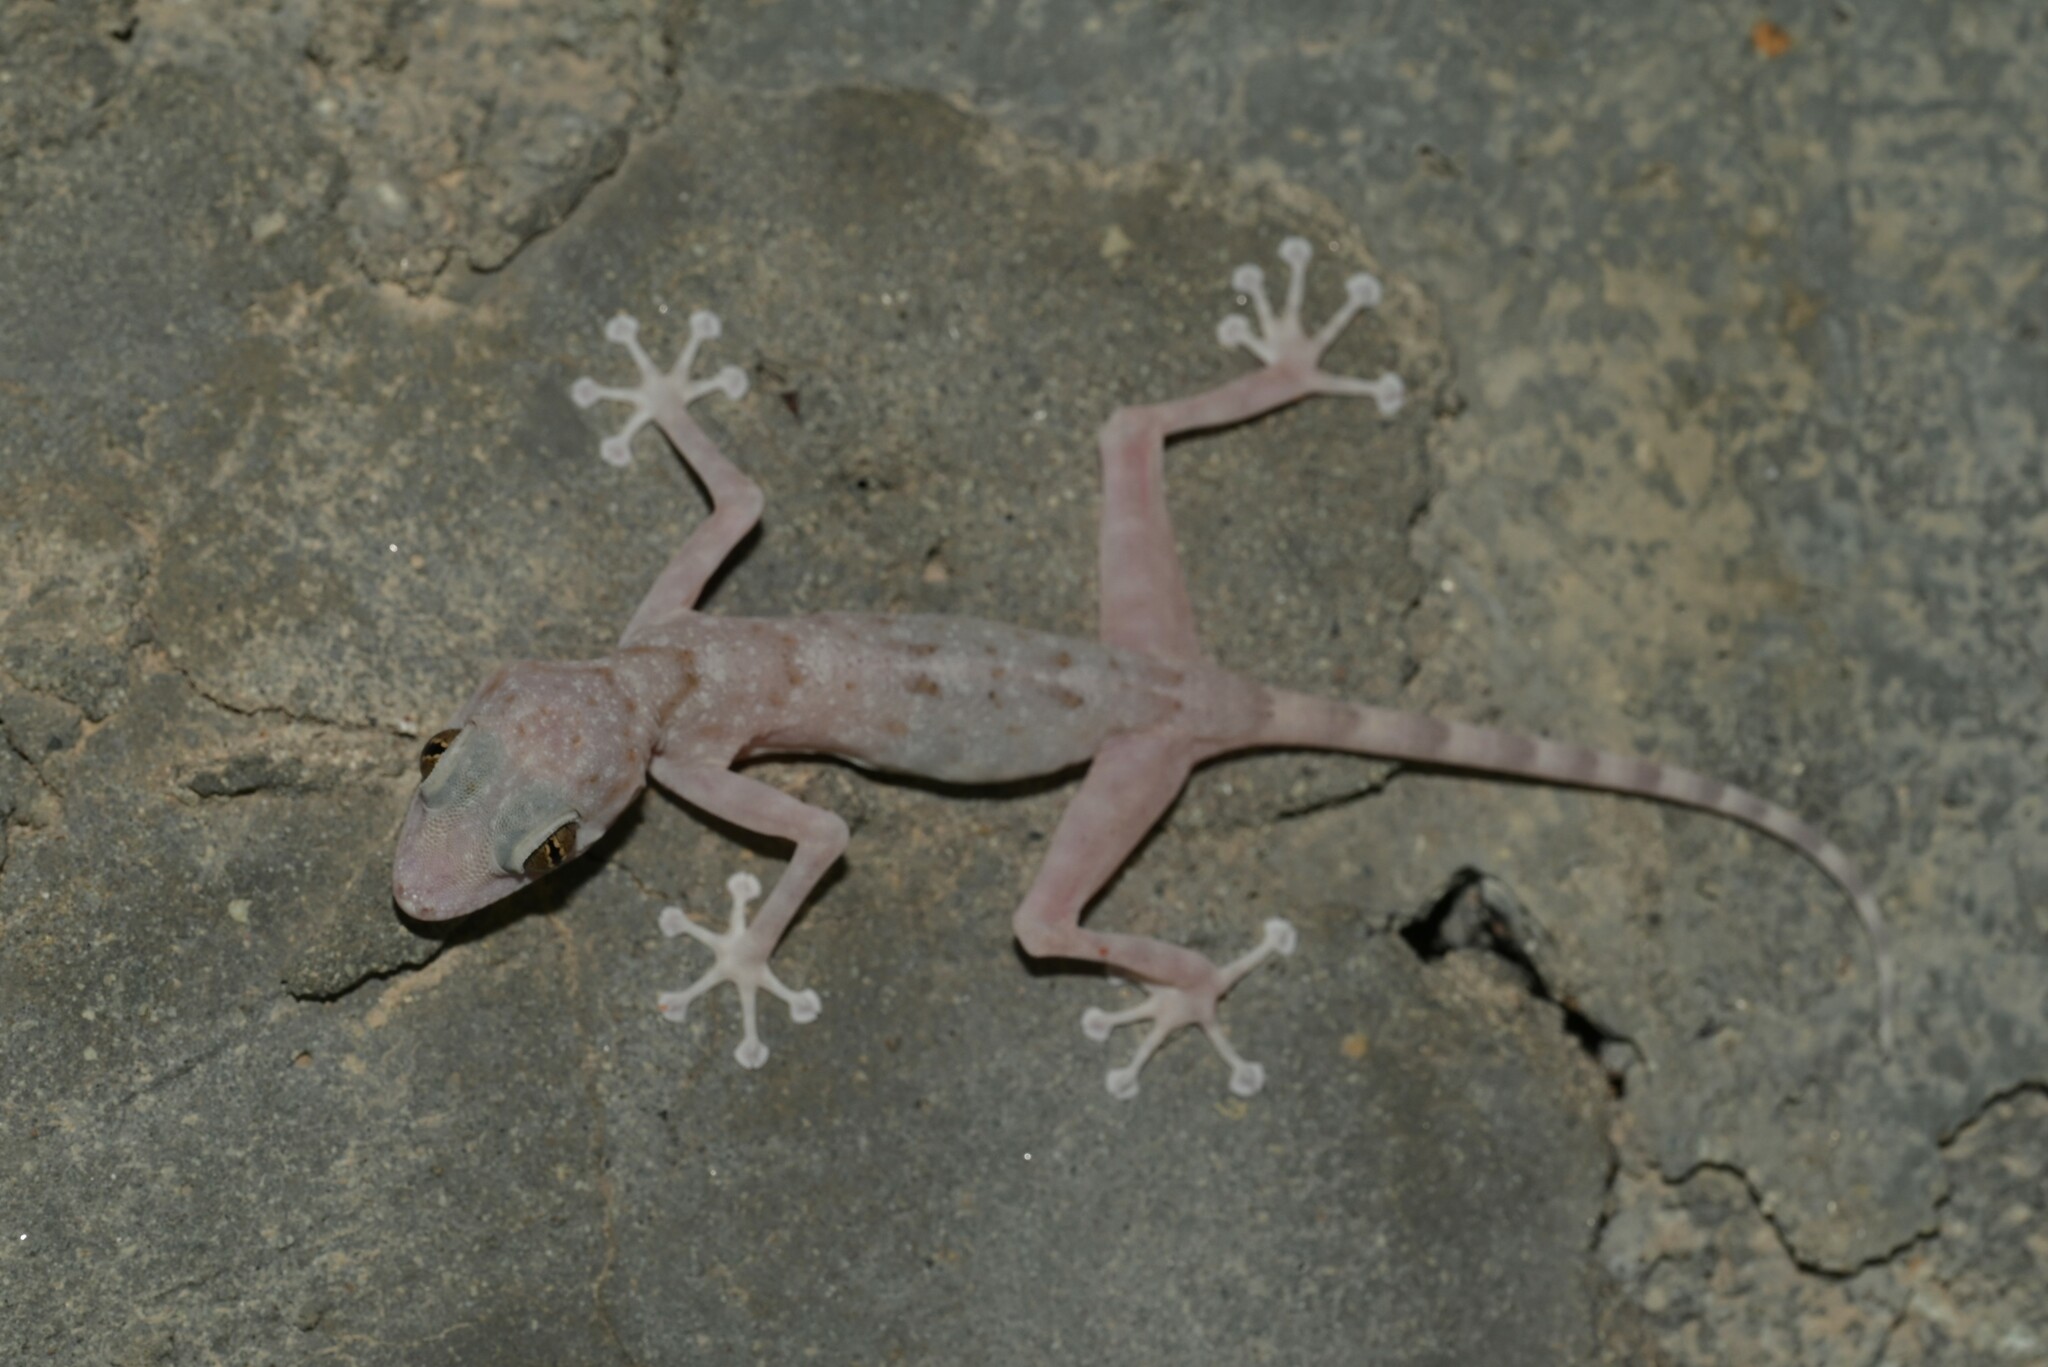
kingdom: Animalia
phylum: Chordata
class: Squamata
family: Phyllodactylidae
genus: Ptyodactylus
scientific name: Ptyodactylus orlovi
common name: Orlov's fan-footed gecko
